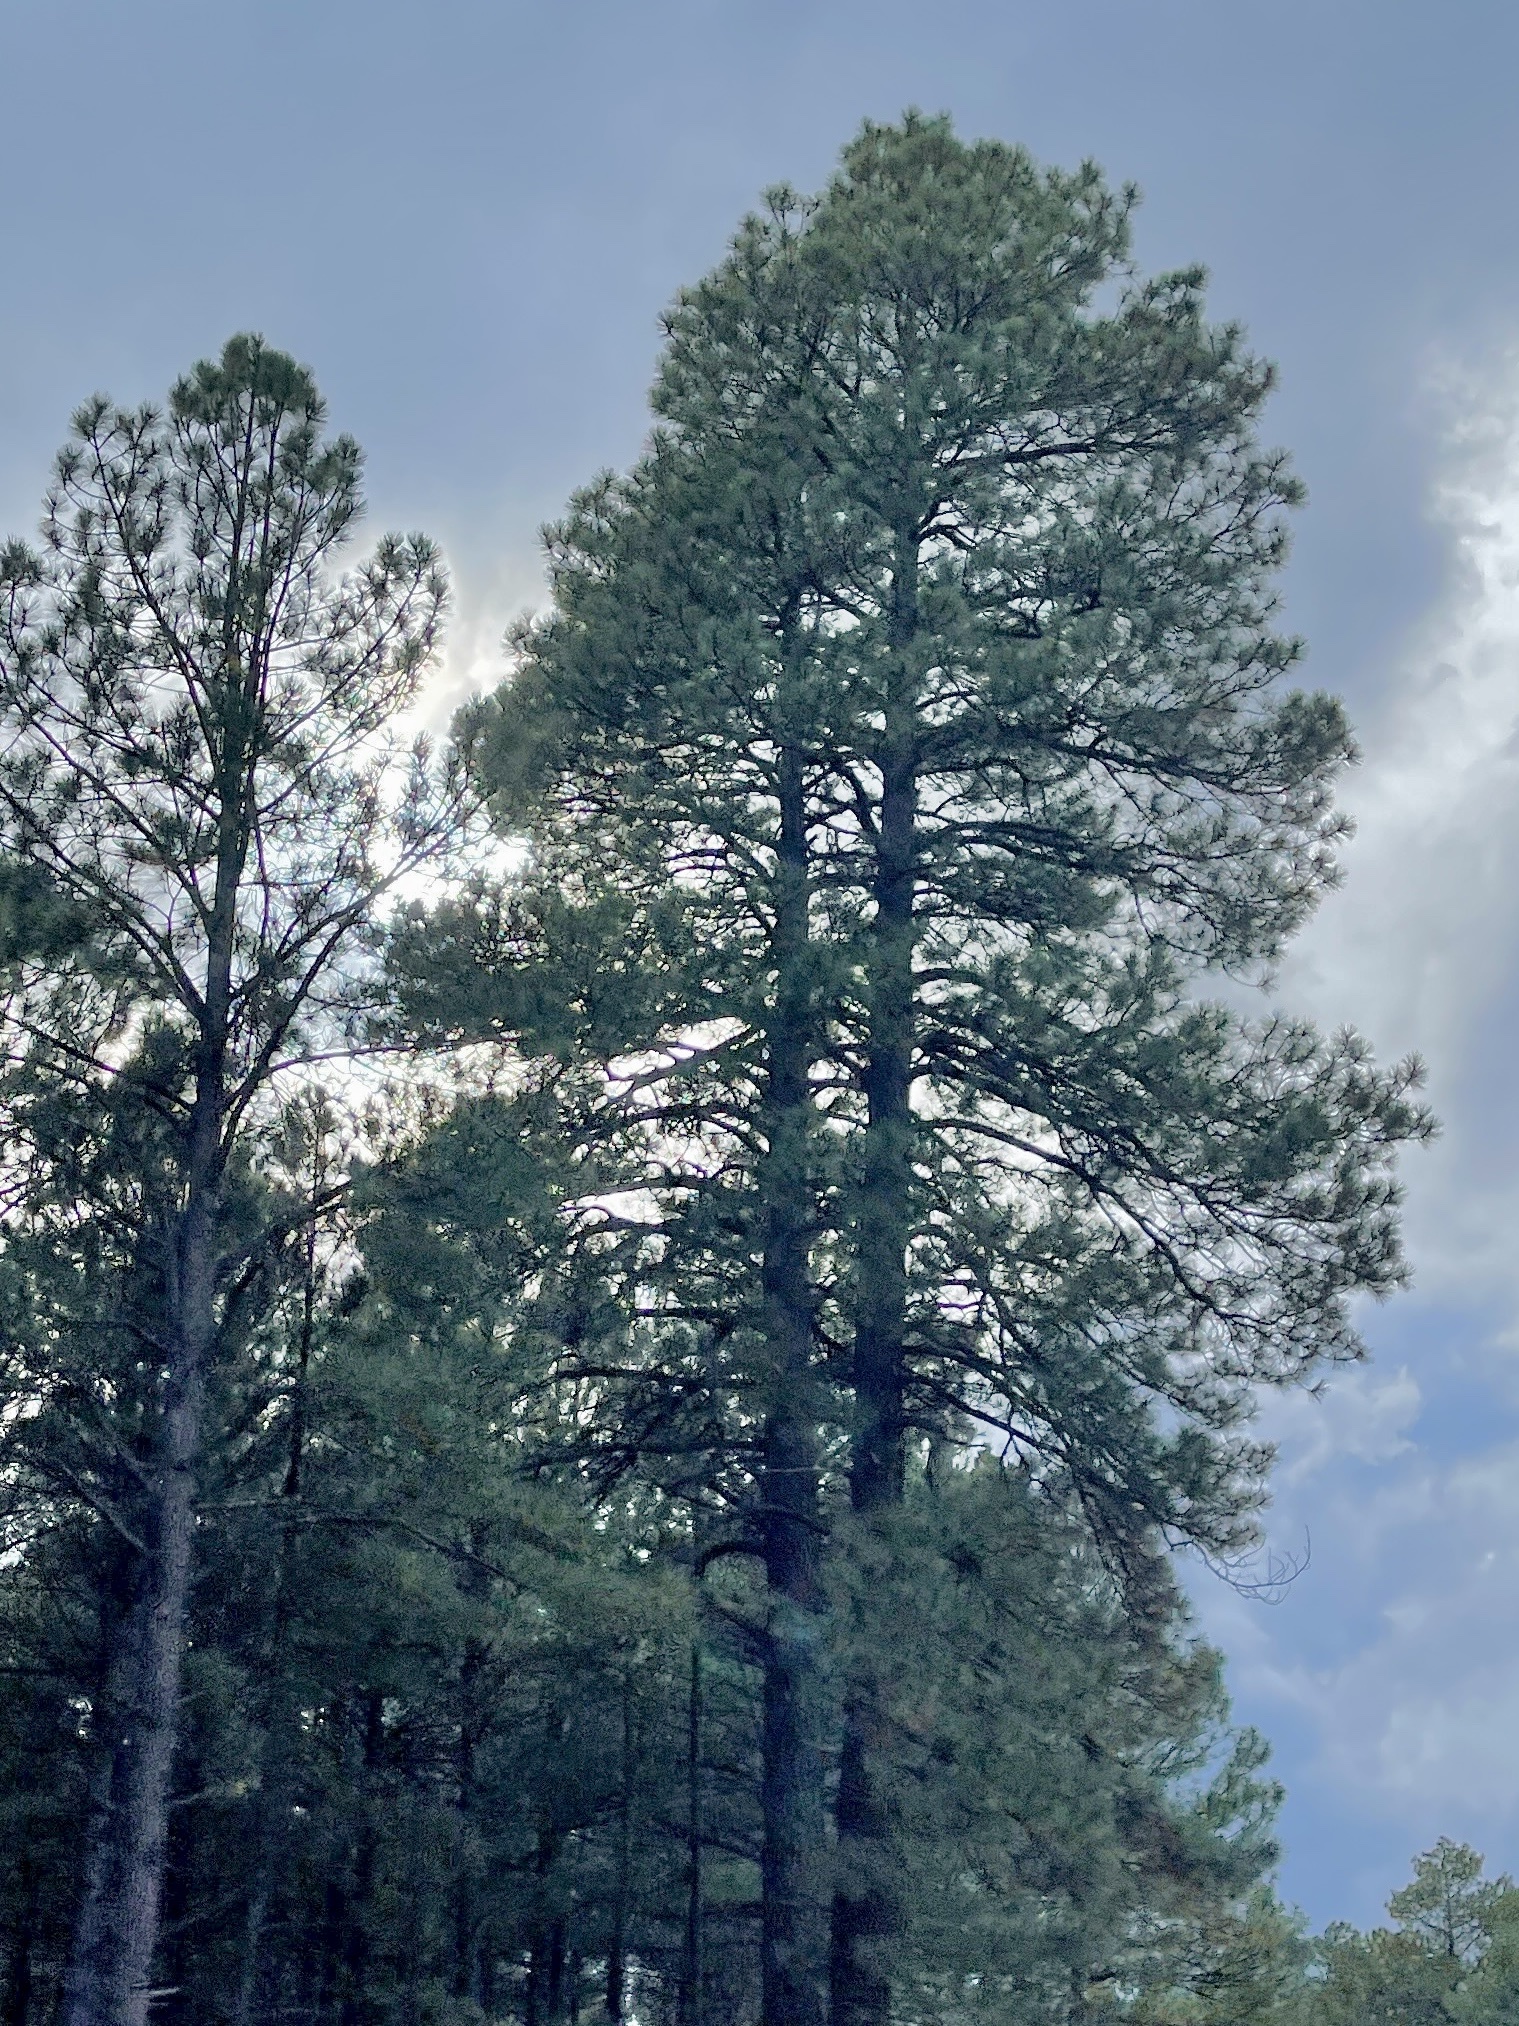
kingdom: Plantae
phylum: Tracheophyta
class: Pinopsida
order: Pinales
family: Pinaceae
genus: Pinus
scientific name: Pinus ponderosa
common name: Western yellow-pine
